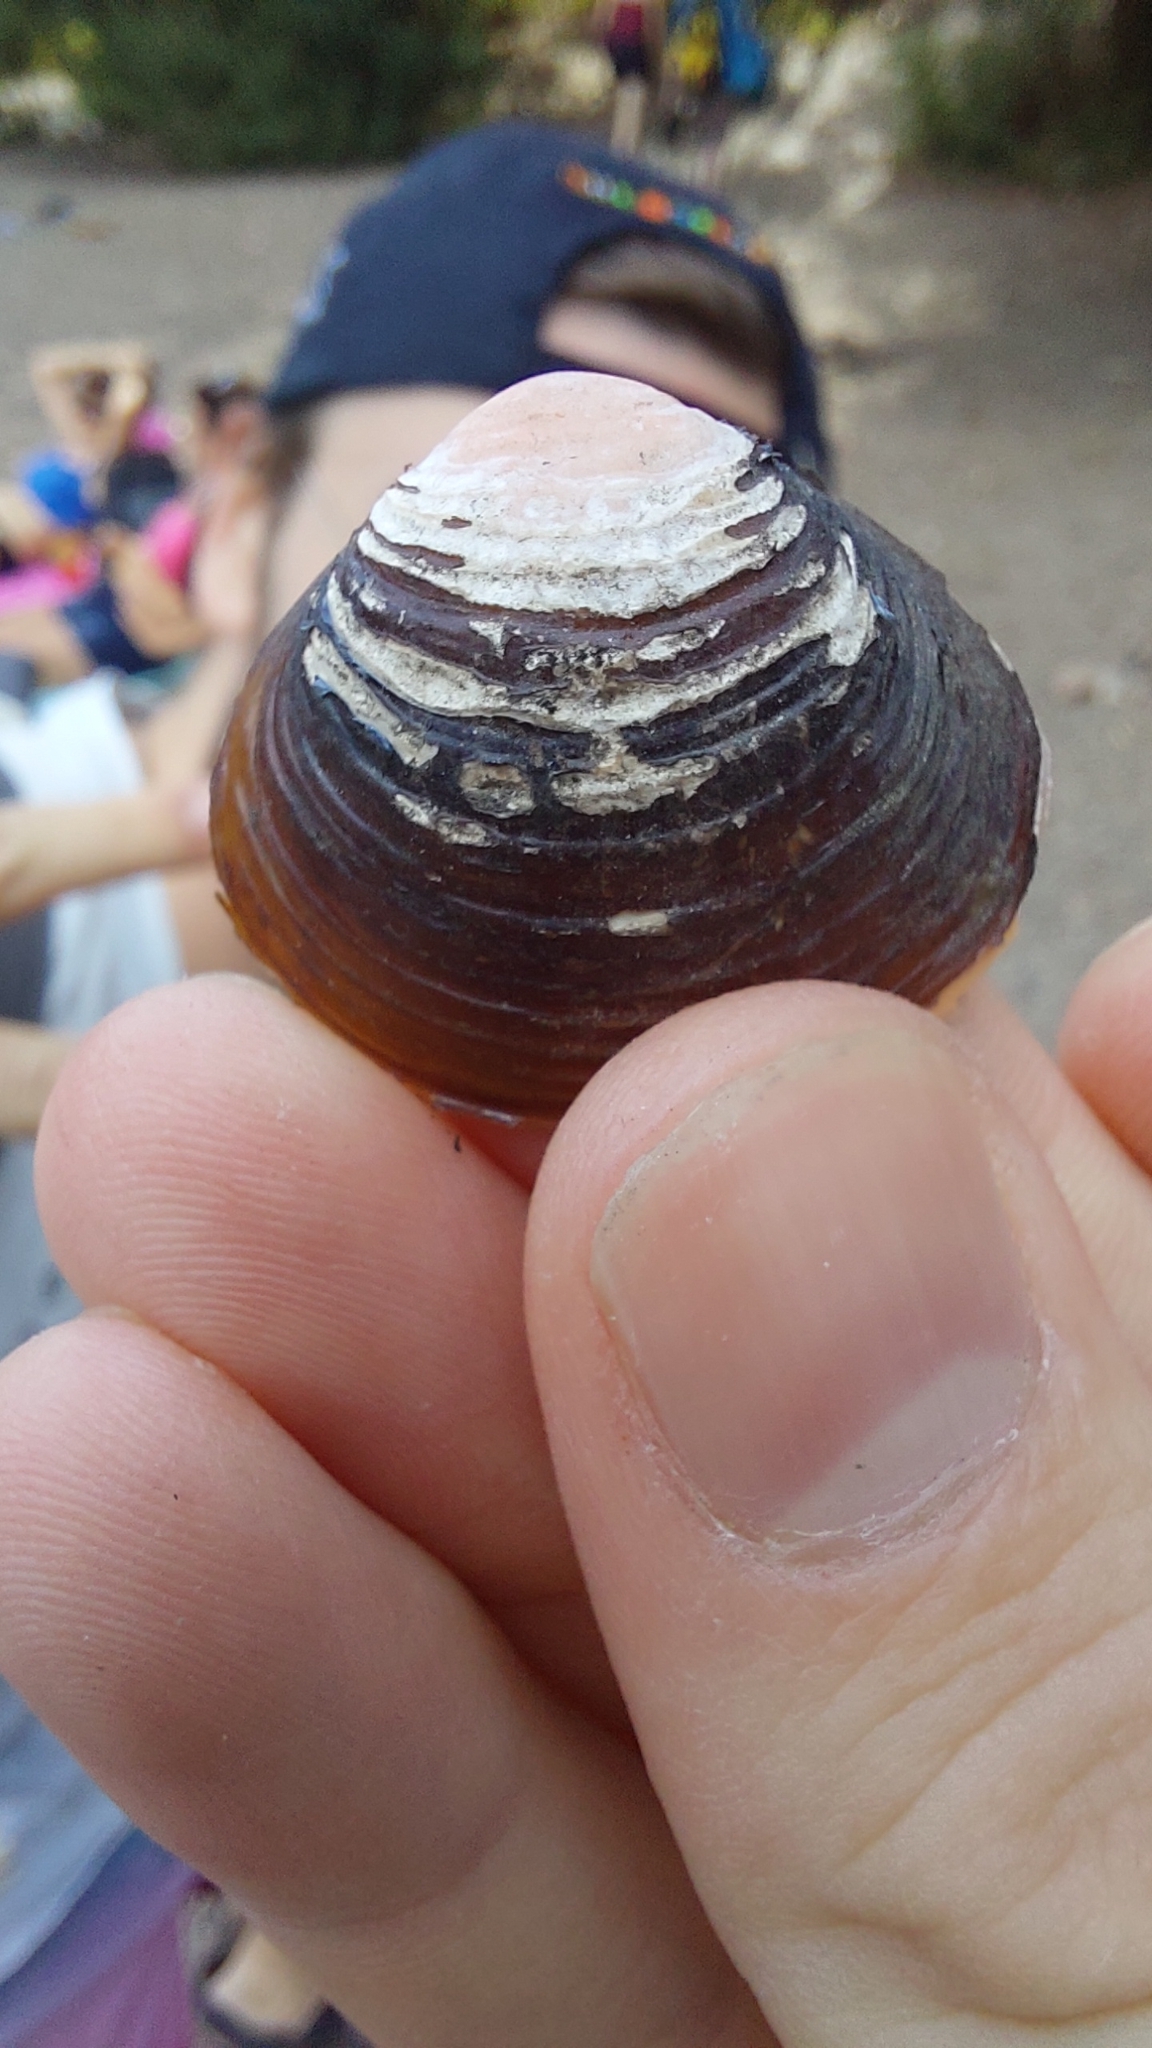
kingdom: Animalia
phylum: Mollusca
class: Bivalvia
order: Venerida
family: Cyrenidae
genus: Corbicula
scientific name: Corbicula fluminea
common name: Asian clam
